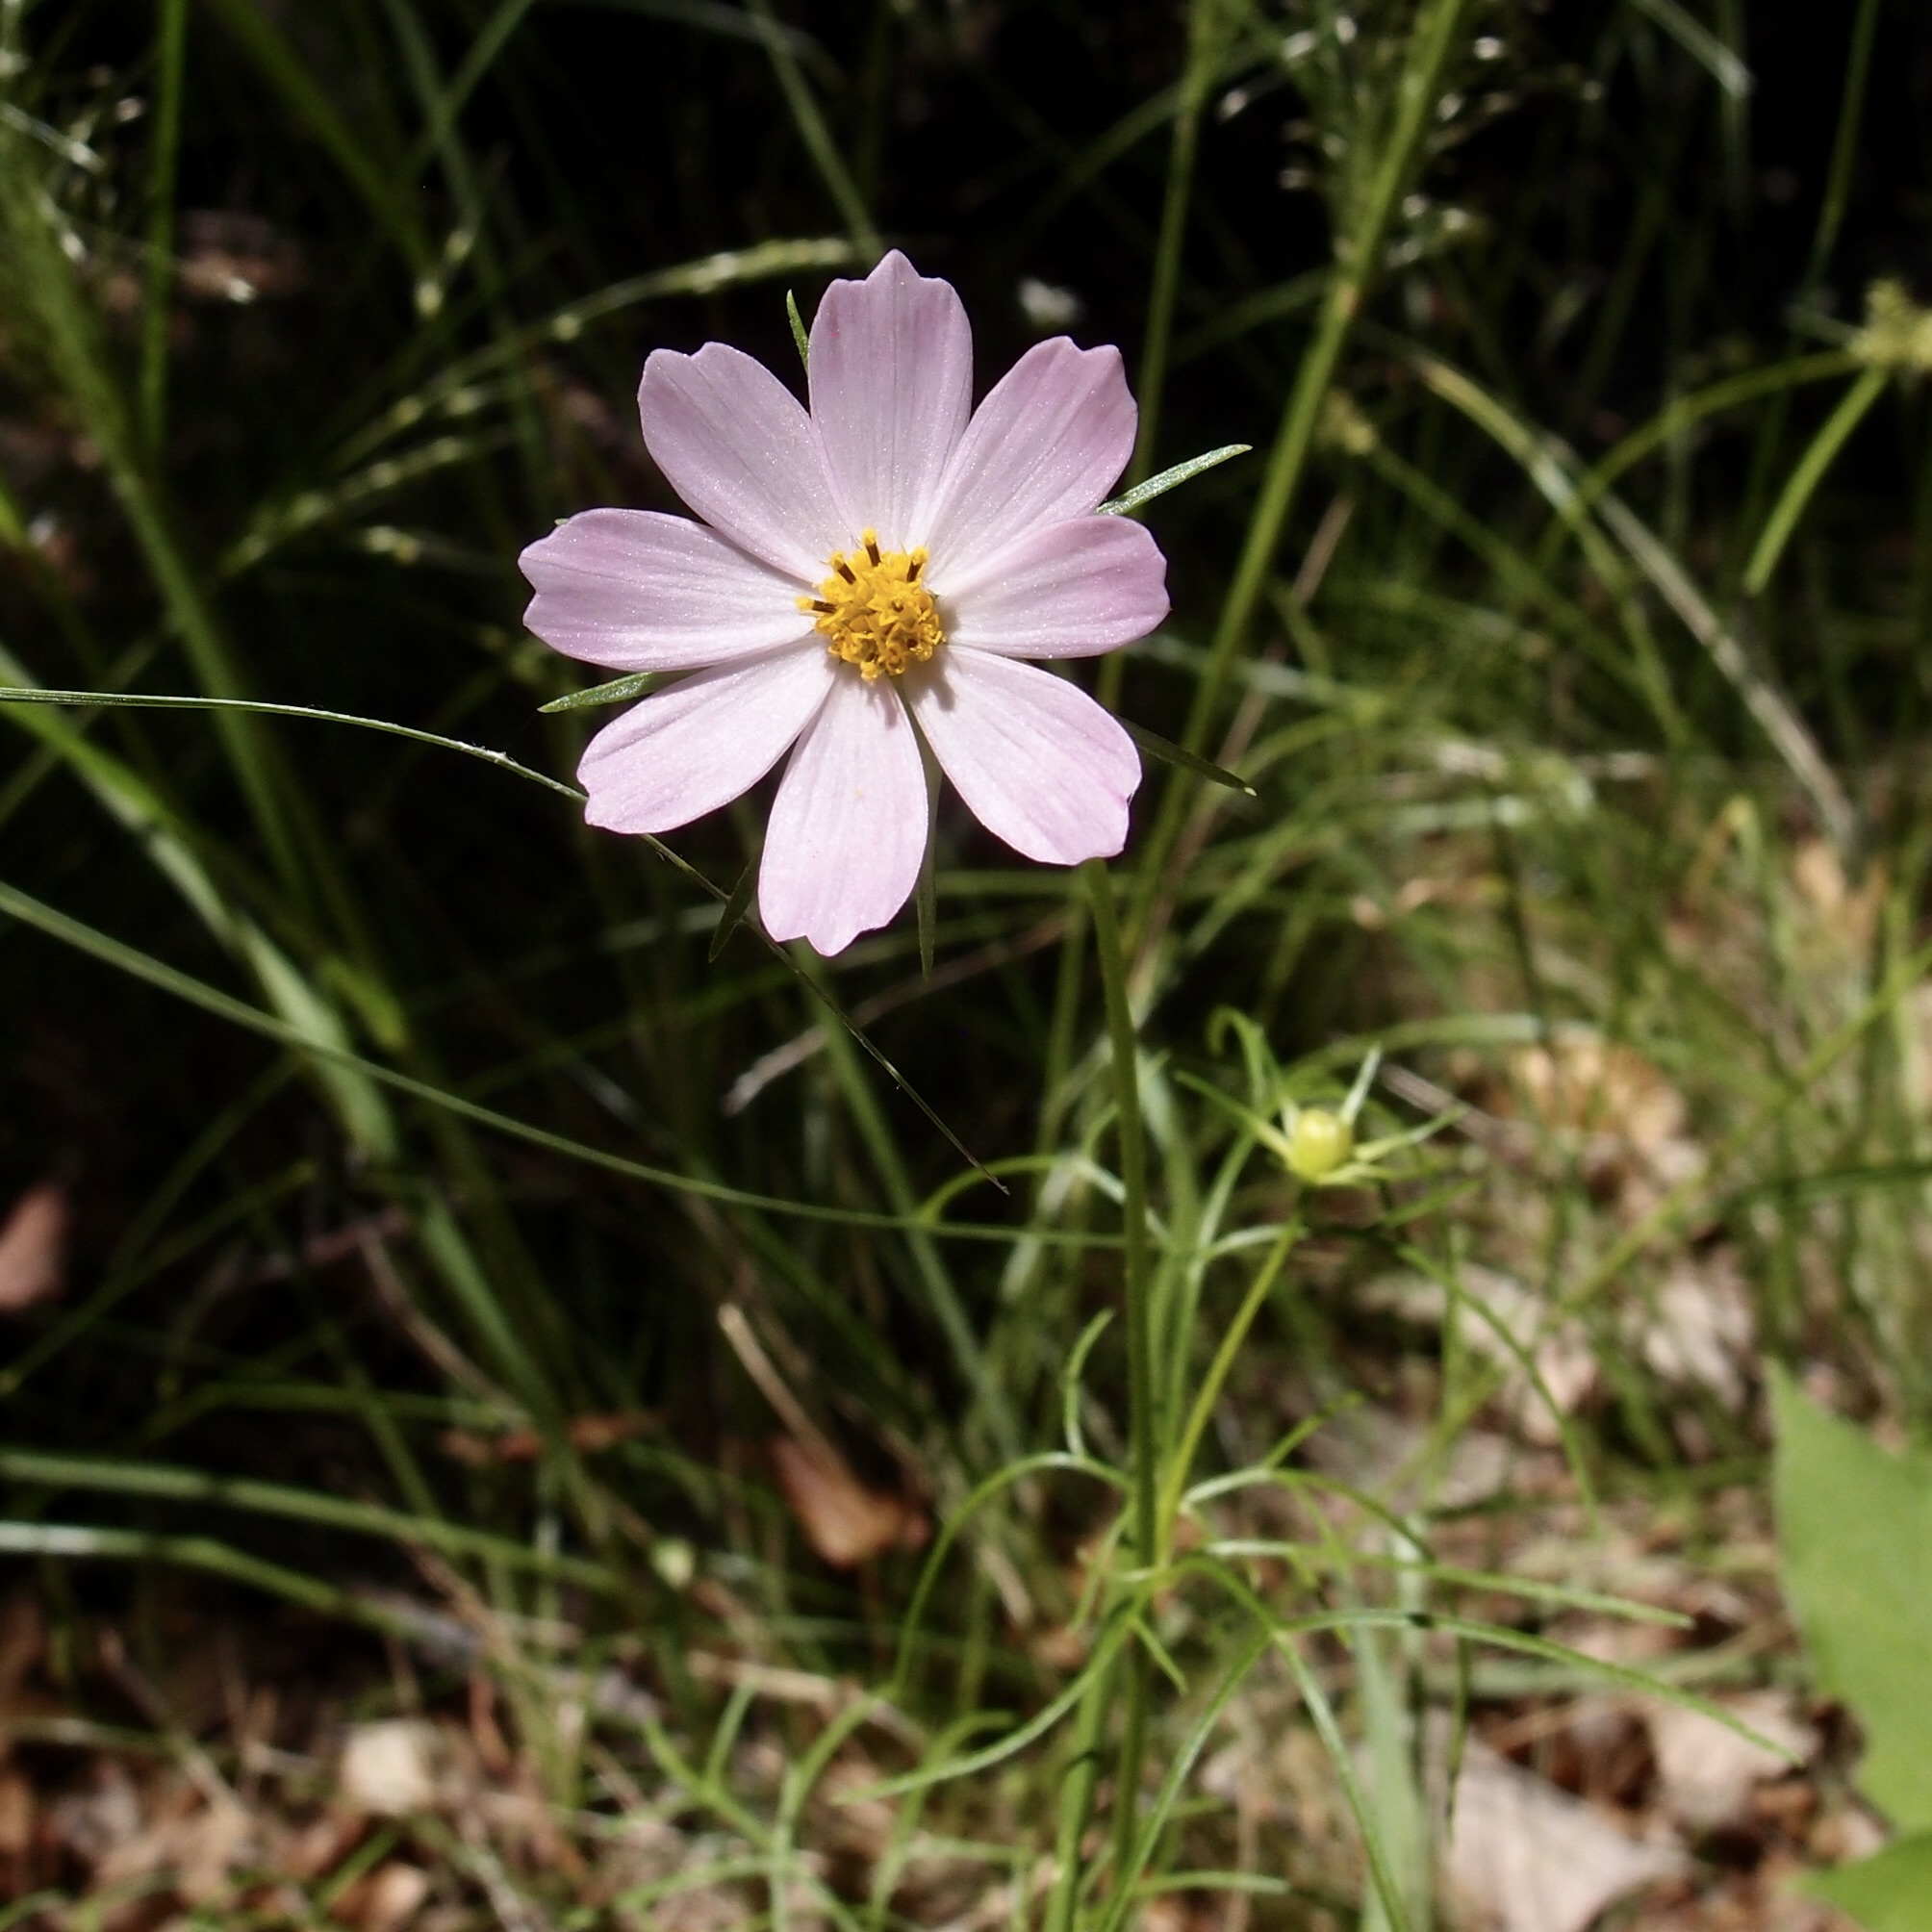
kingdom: Plantae
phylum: Tracheophyta
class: Magnoliopsida
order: Asterales
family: Asteraceae
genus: Cosmos
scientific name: Cosmos parviflorus
